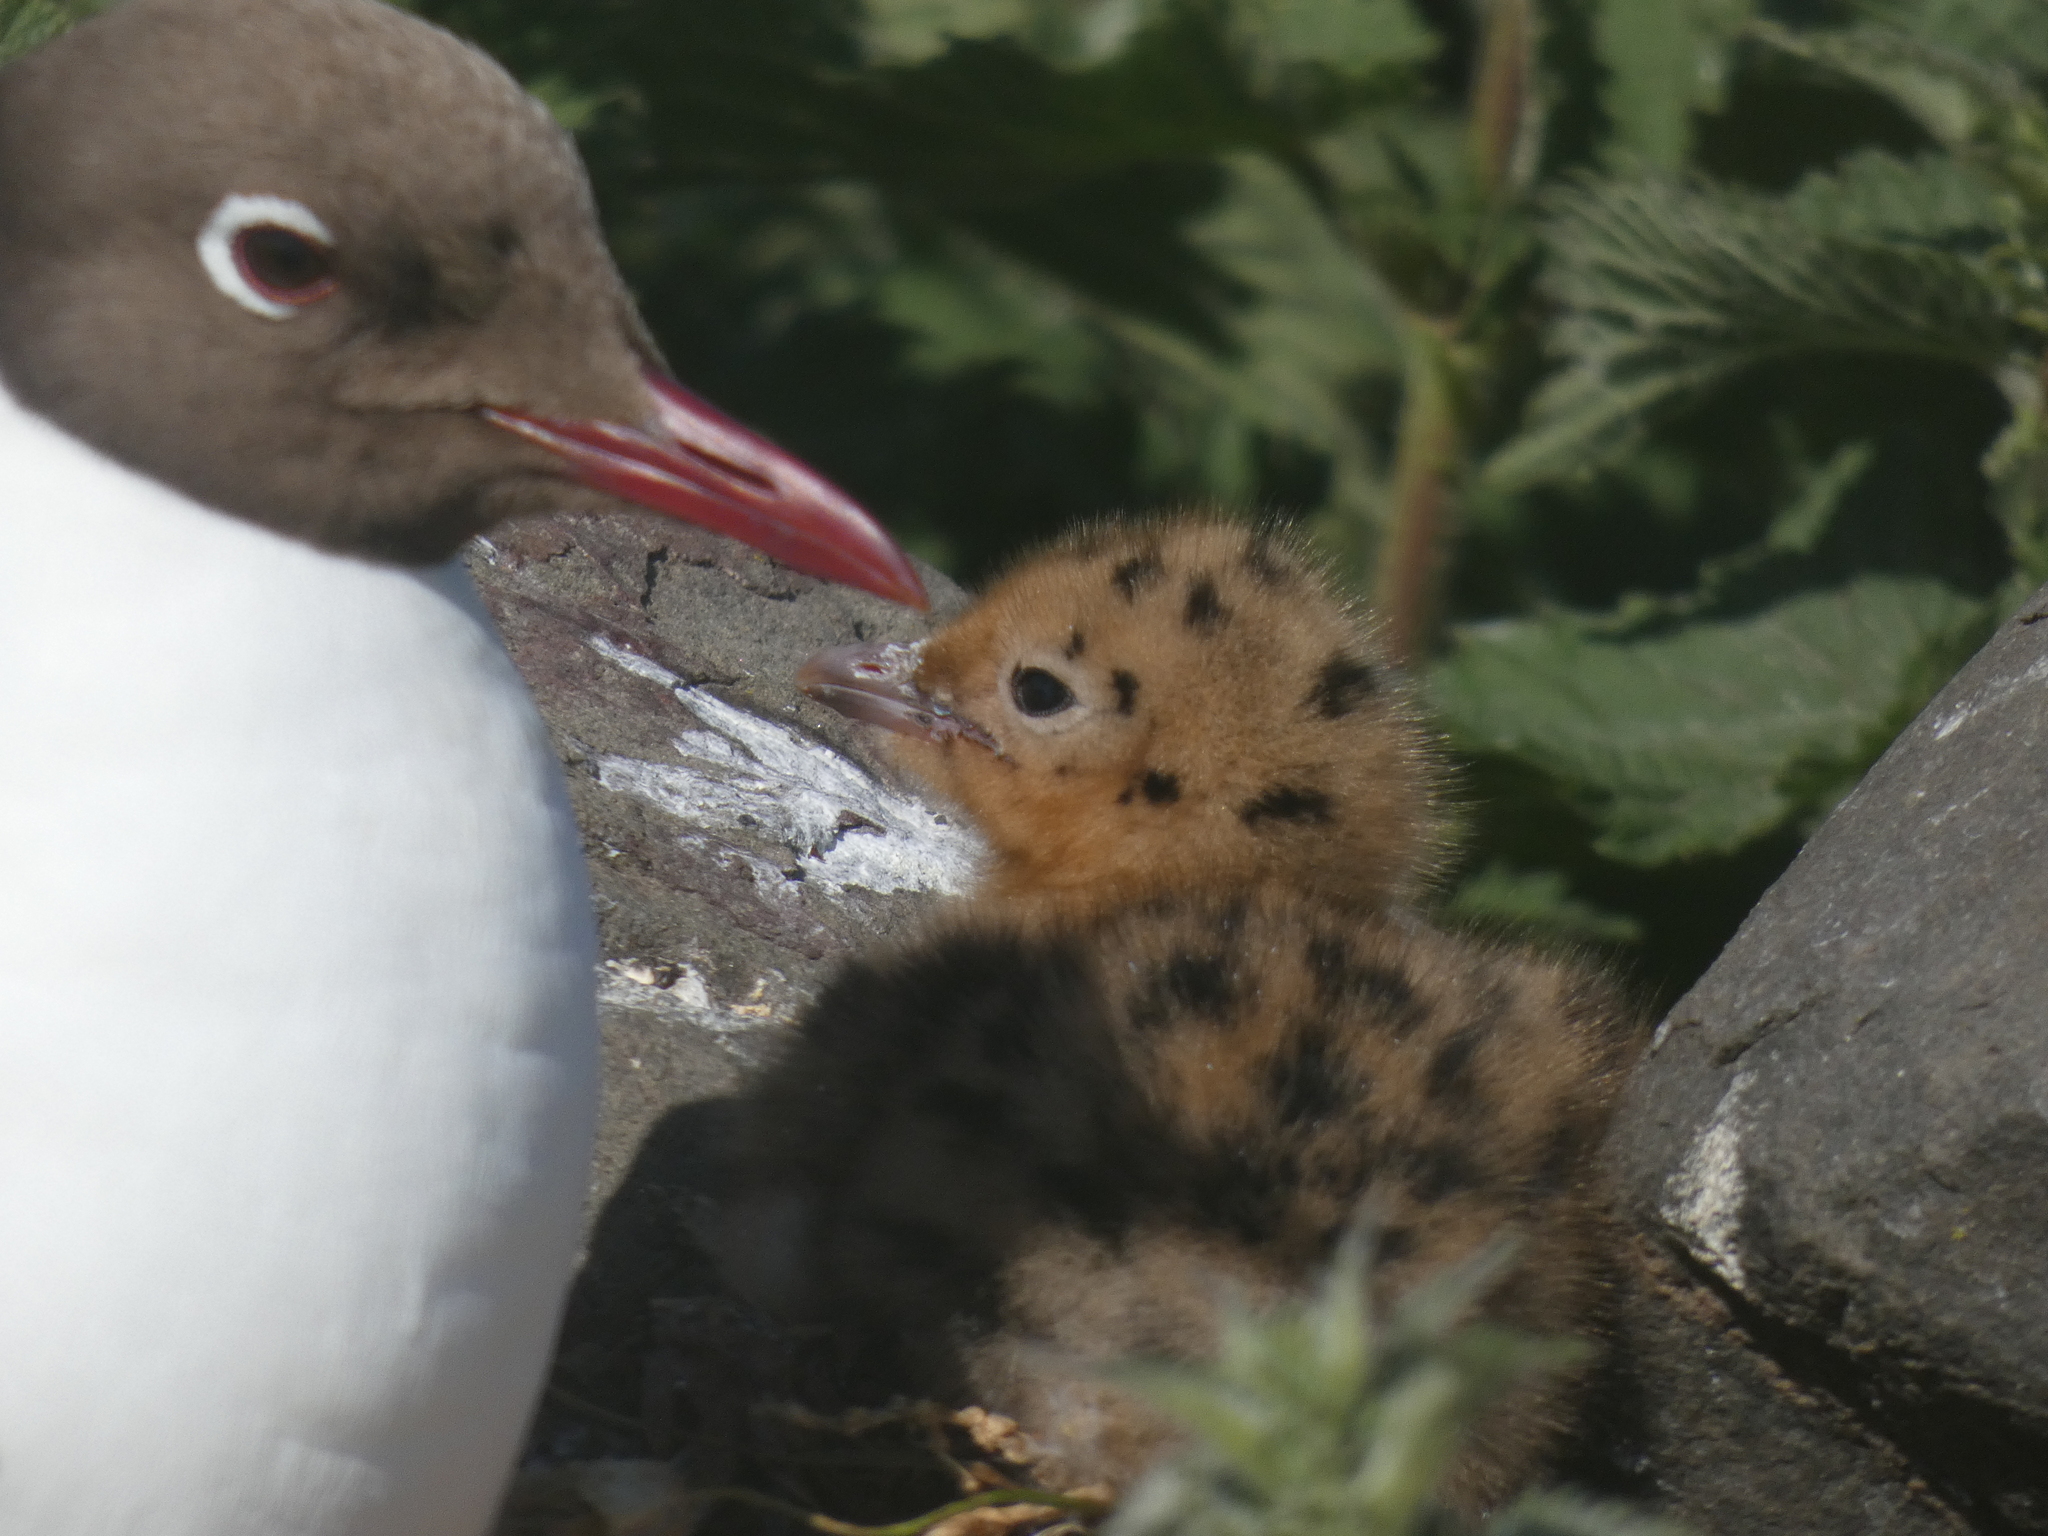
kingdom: Animalia
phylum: Chordata
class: Aves
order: Charadriiformes
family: Laridae
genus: Chroicocephalus
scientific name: Chroicocephalus ridibundus
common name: Black-headed gull
